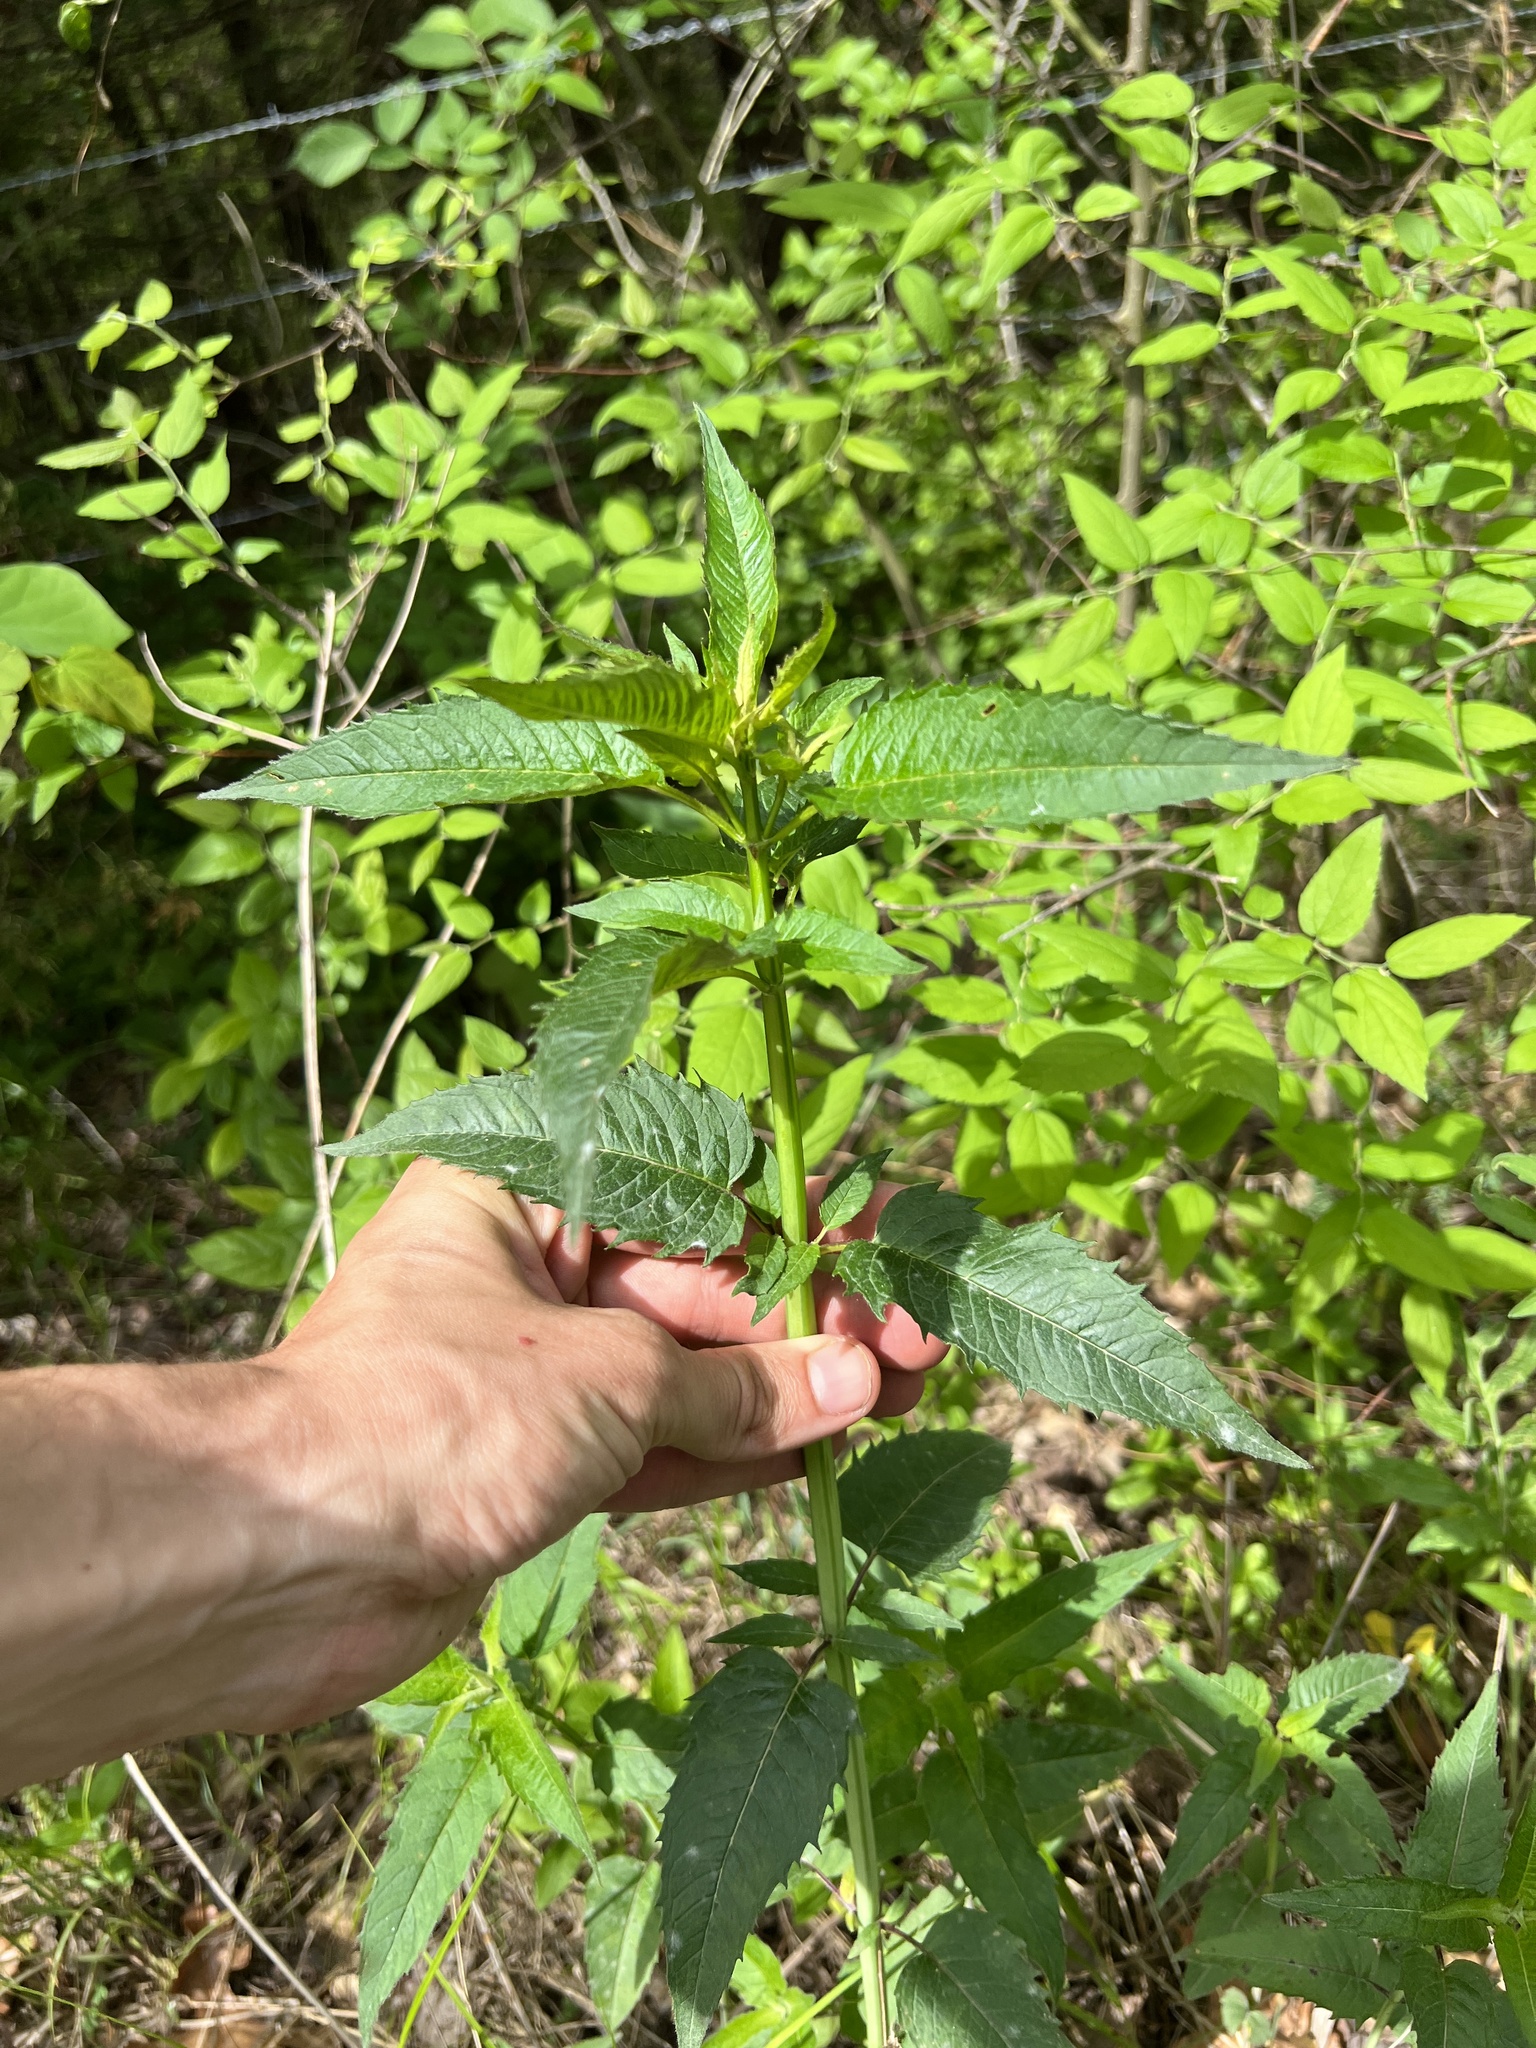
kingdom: Plantae
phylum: Tracheophyta
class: Magnoliopsida
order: Lamiales
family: Lamiaceae
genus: Monarda
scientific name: Monarda fistulosa
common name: Purple beebalm
